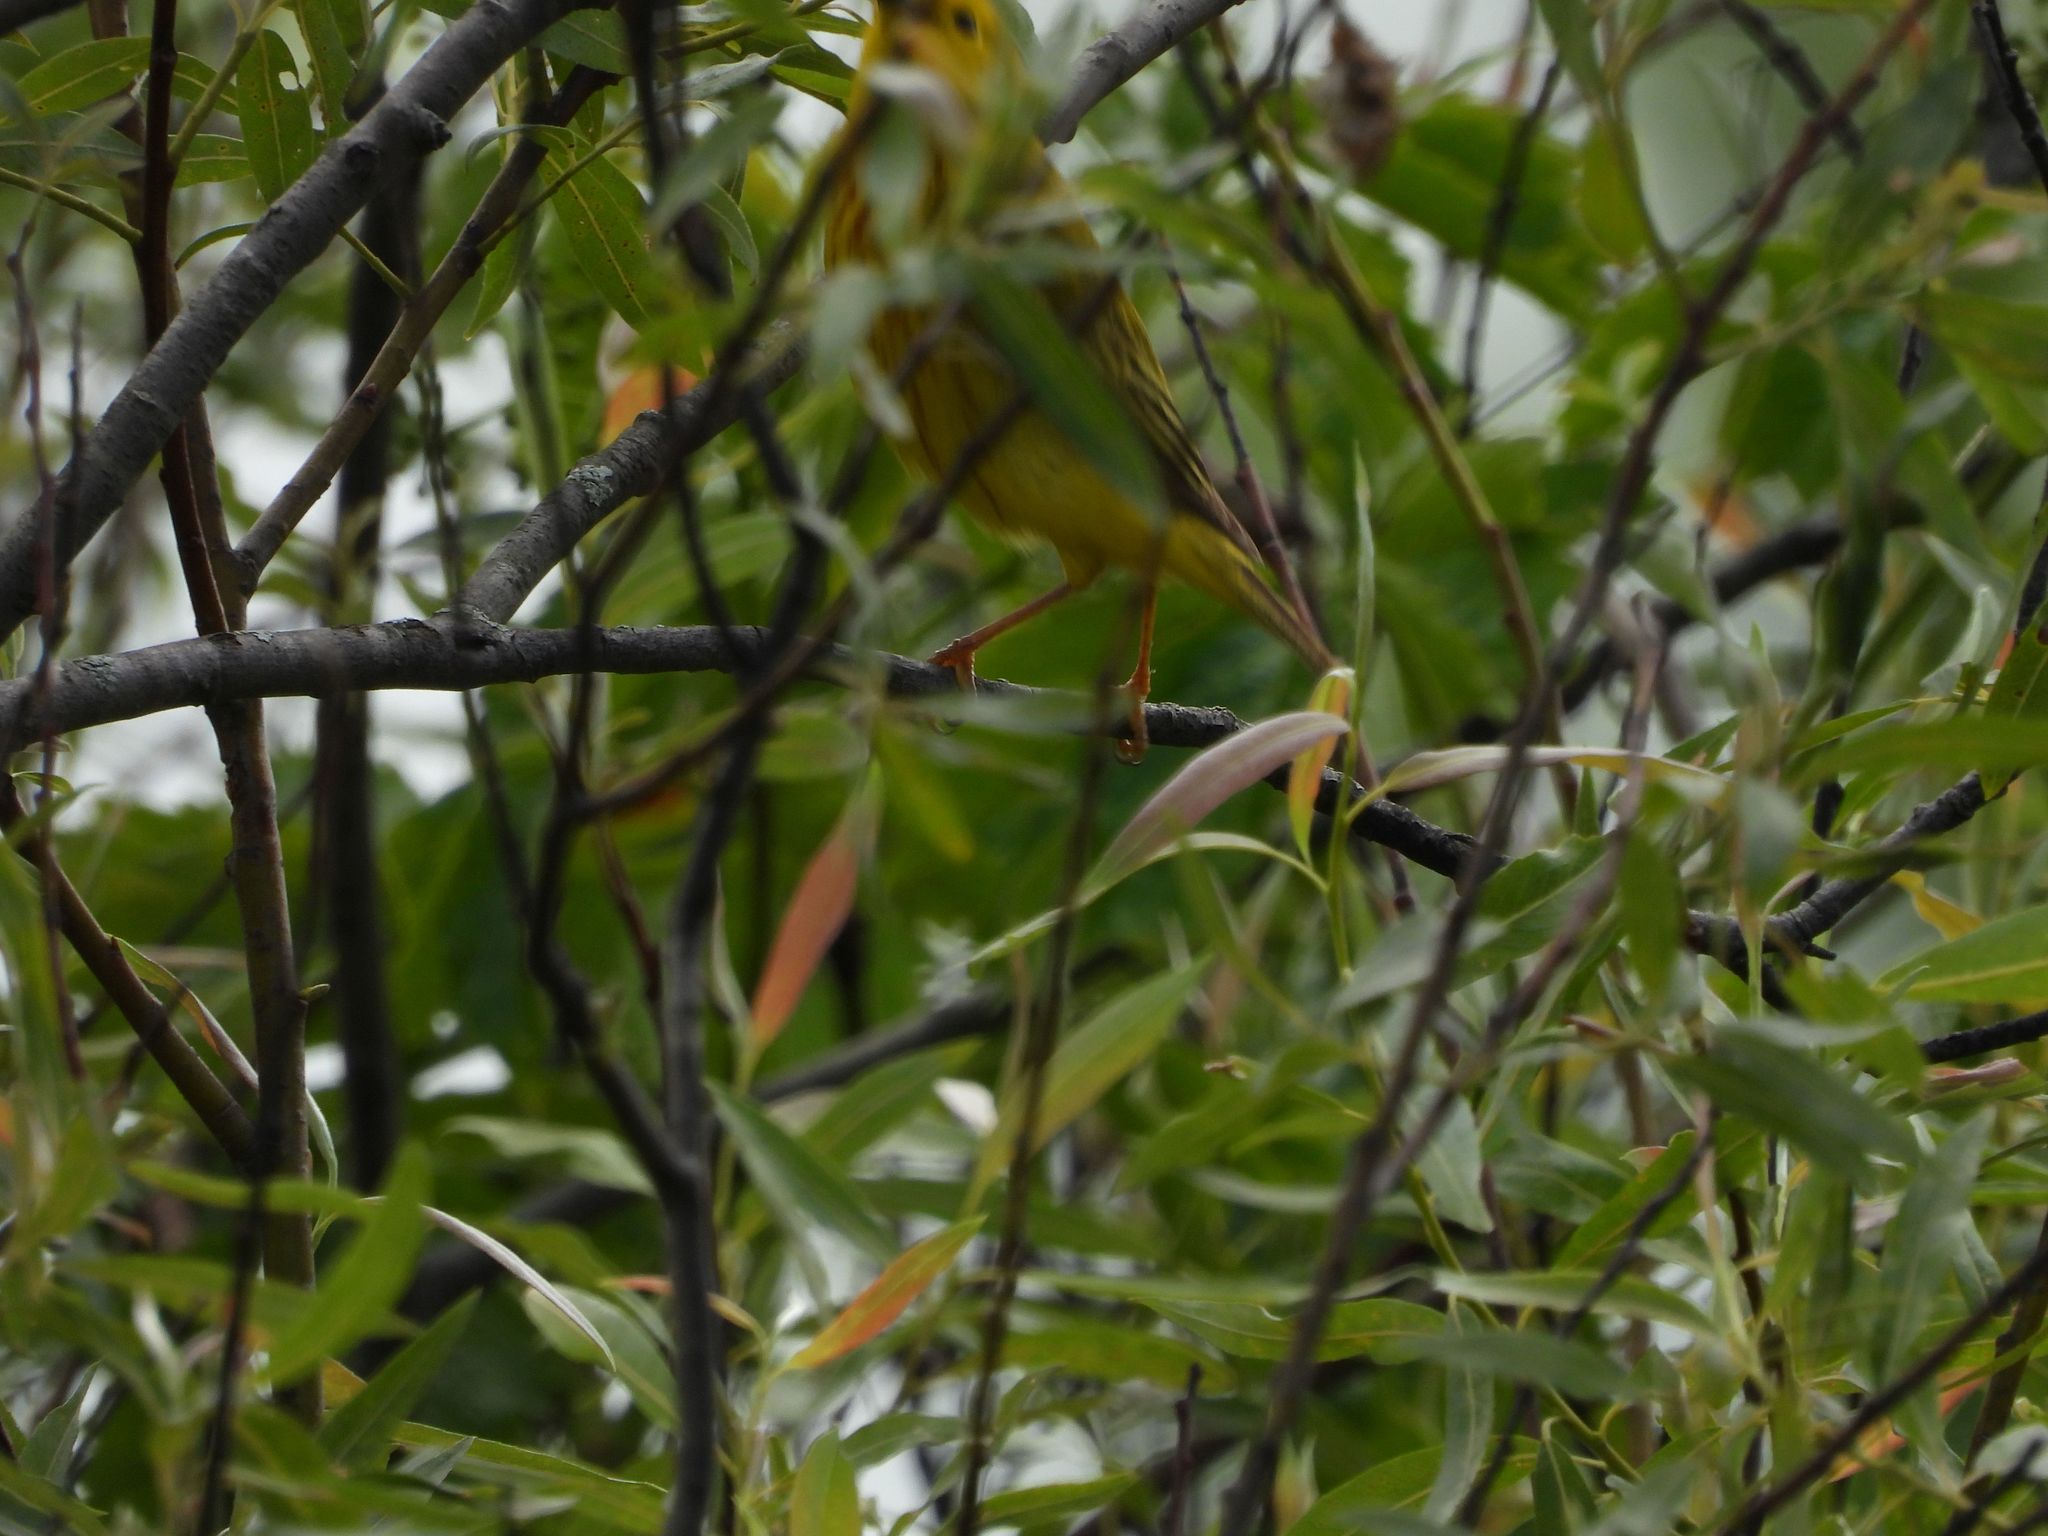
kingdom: Animalia
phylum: Chordata
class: Aves
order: Passeriformes
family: Parulidae
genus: Setophaga
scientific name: Setophaga petechia
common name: Yellow warbler
